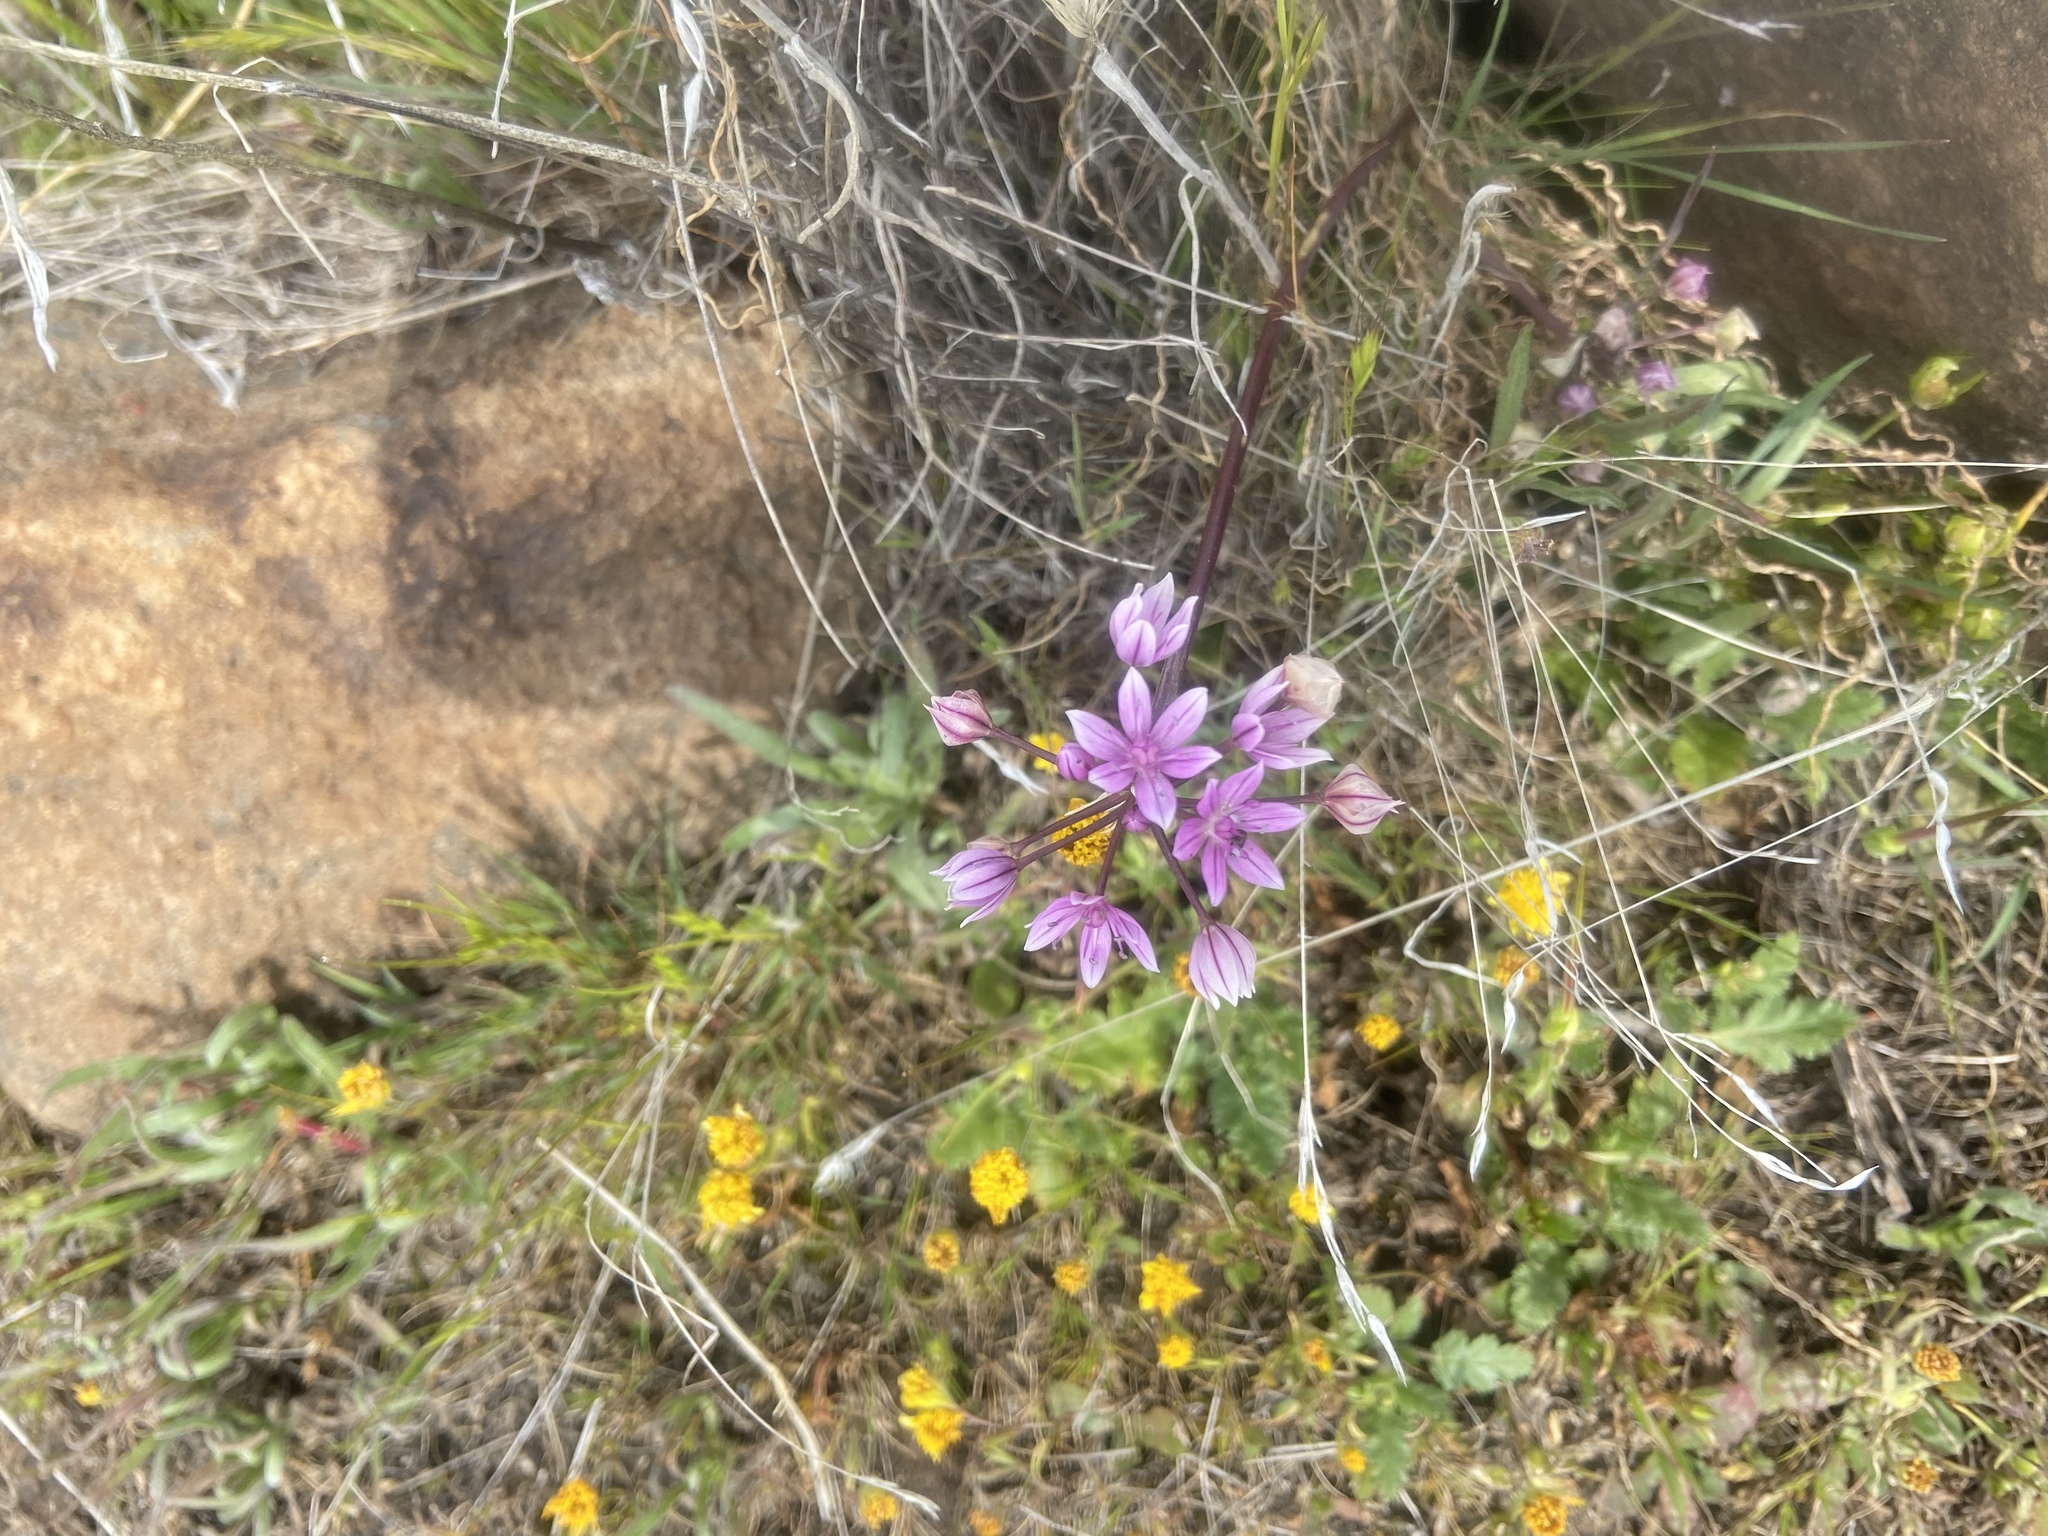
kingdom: Plantae
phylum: Tracheophyta
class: Liliopsida
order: Asparagales
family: Amaryllidaceae
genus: Allium
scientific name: Allium hyalinum
